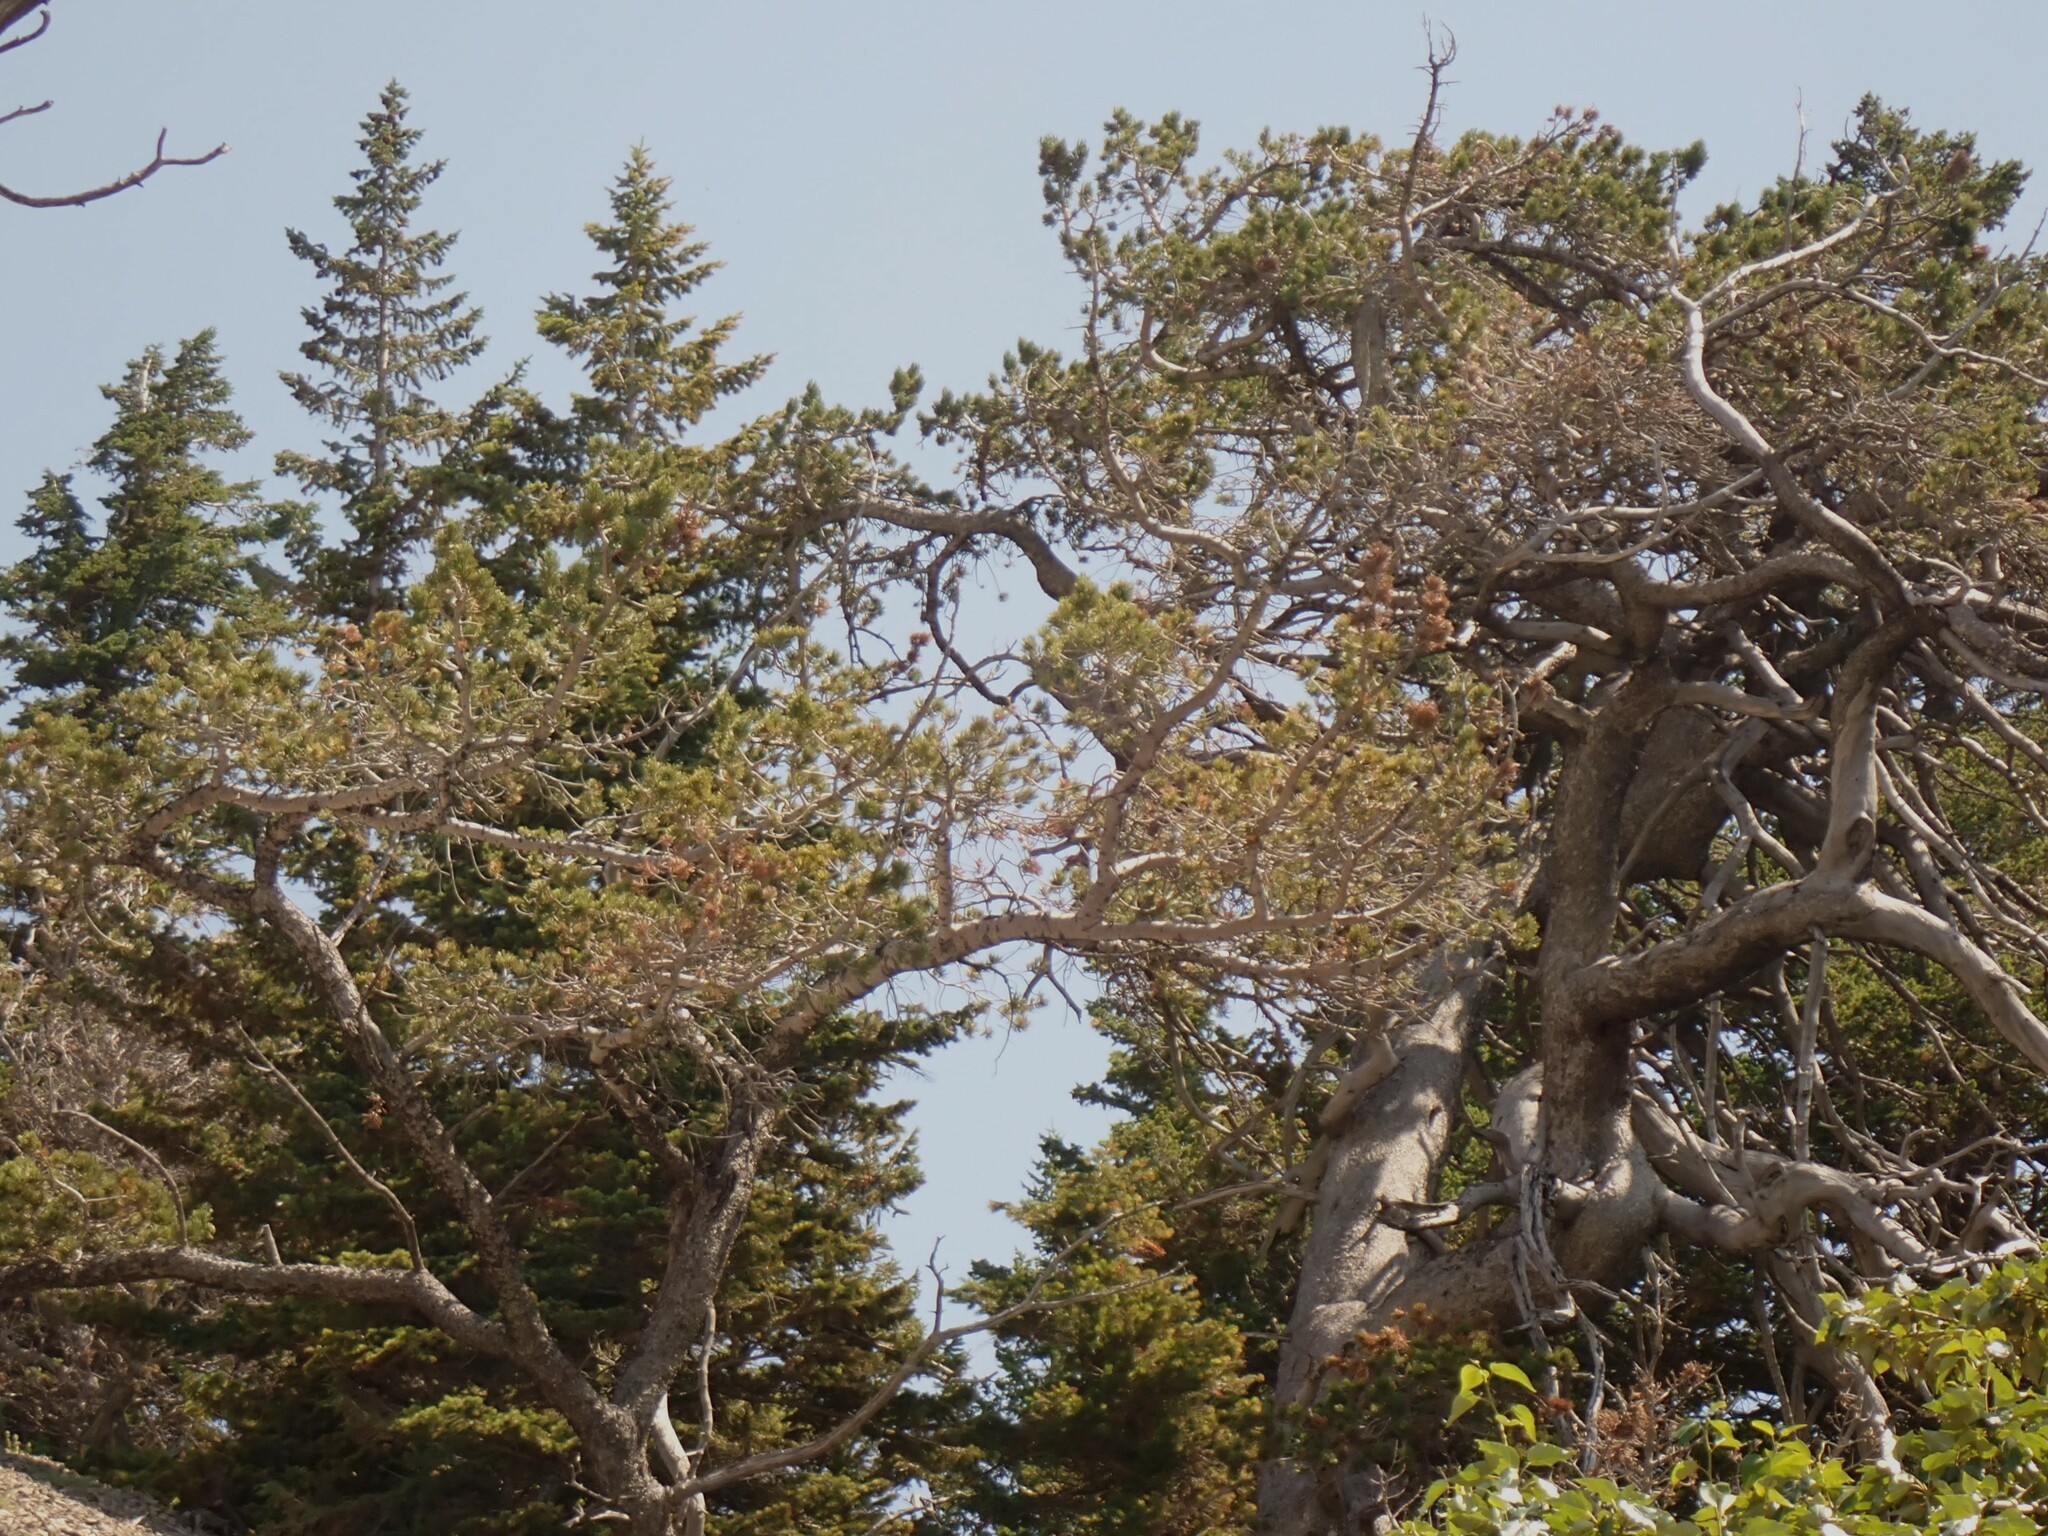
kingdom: Plantae
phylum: Tracheophyta
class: Pinopsida
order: Pinales
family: Pinaceae
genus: Pinus
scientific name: Pinus flexilis
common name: Limber pine
